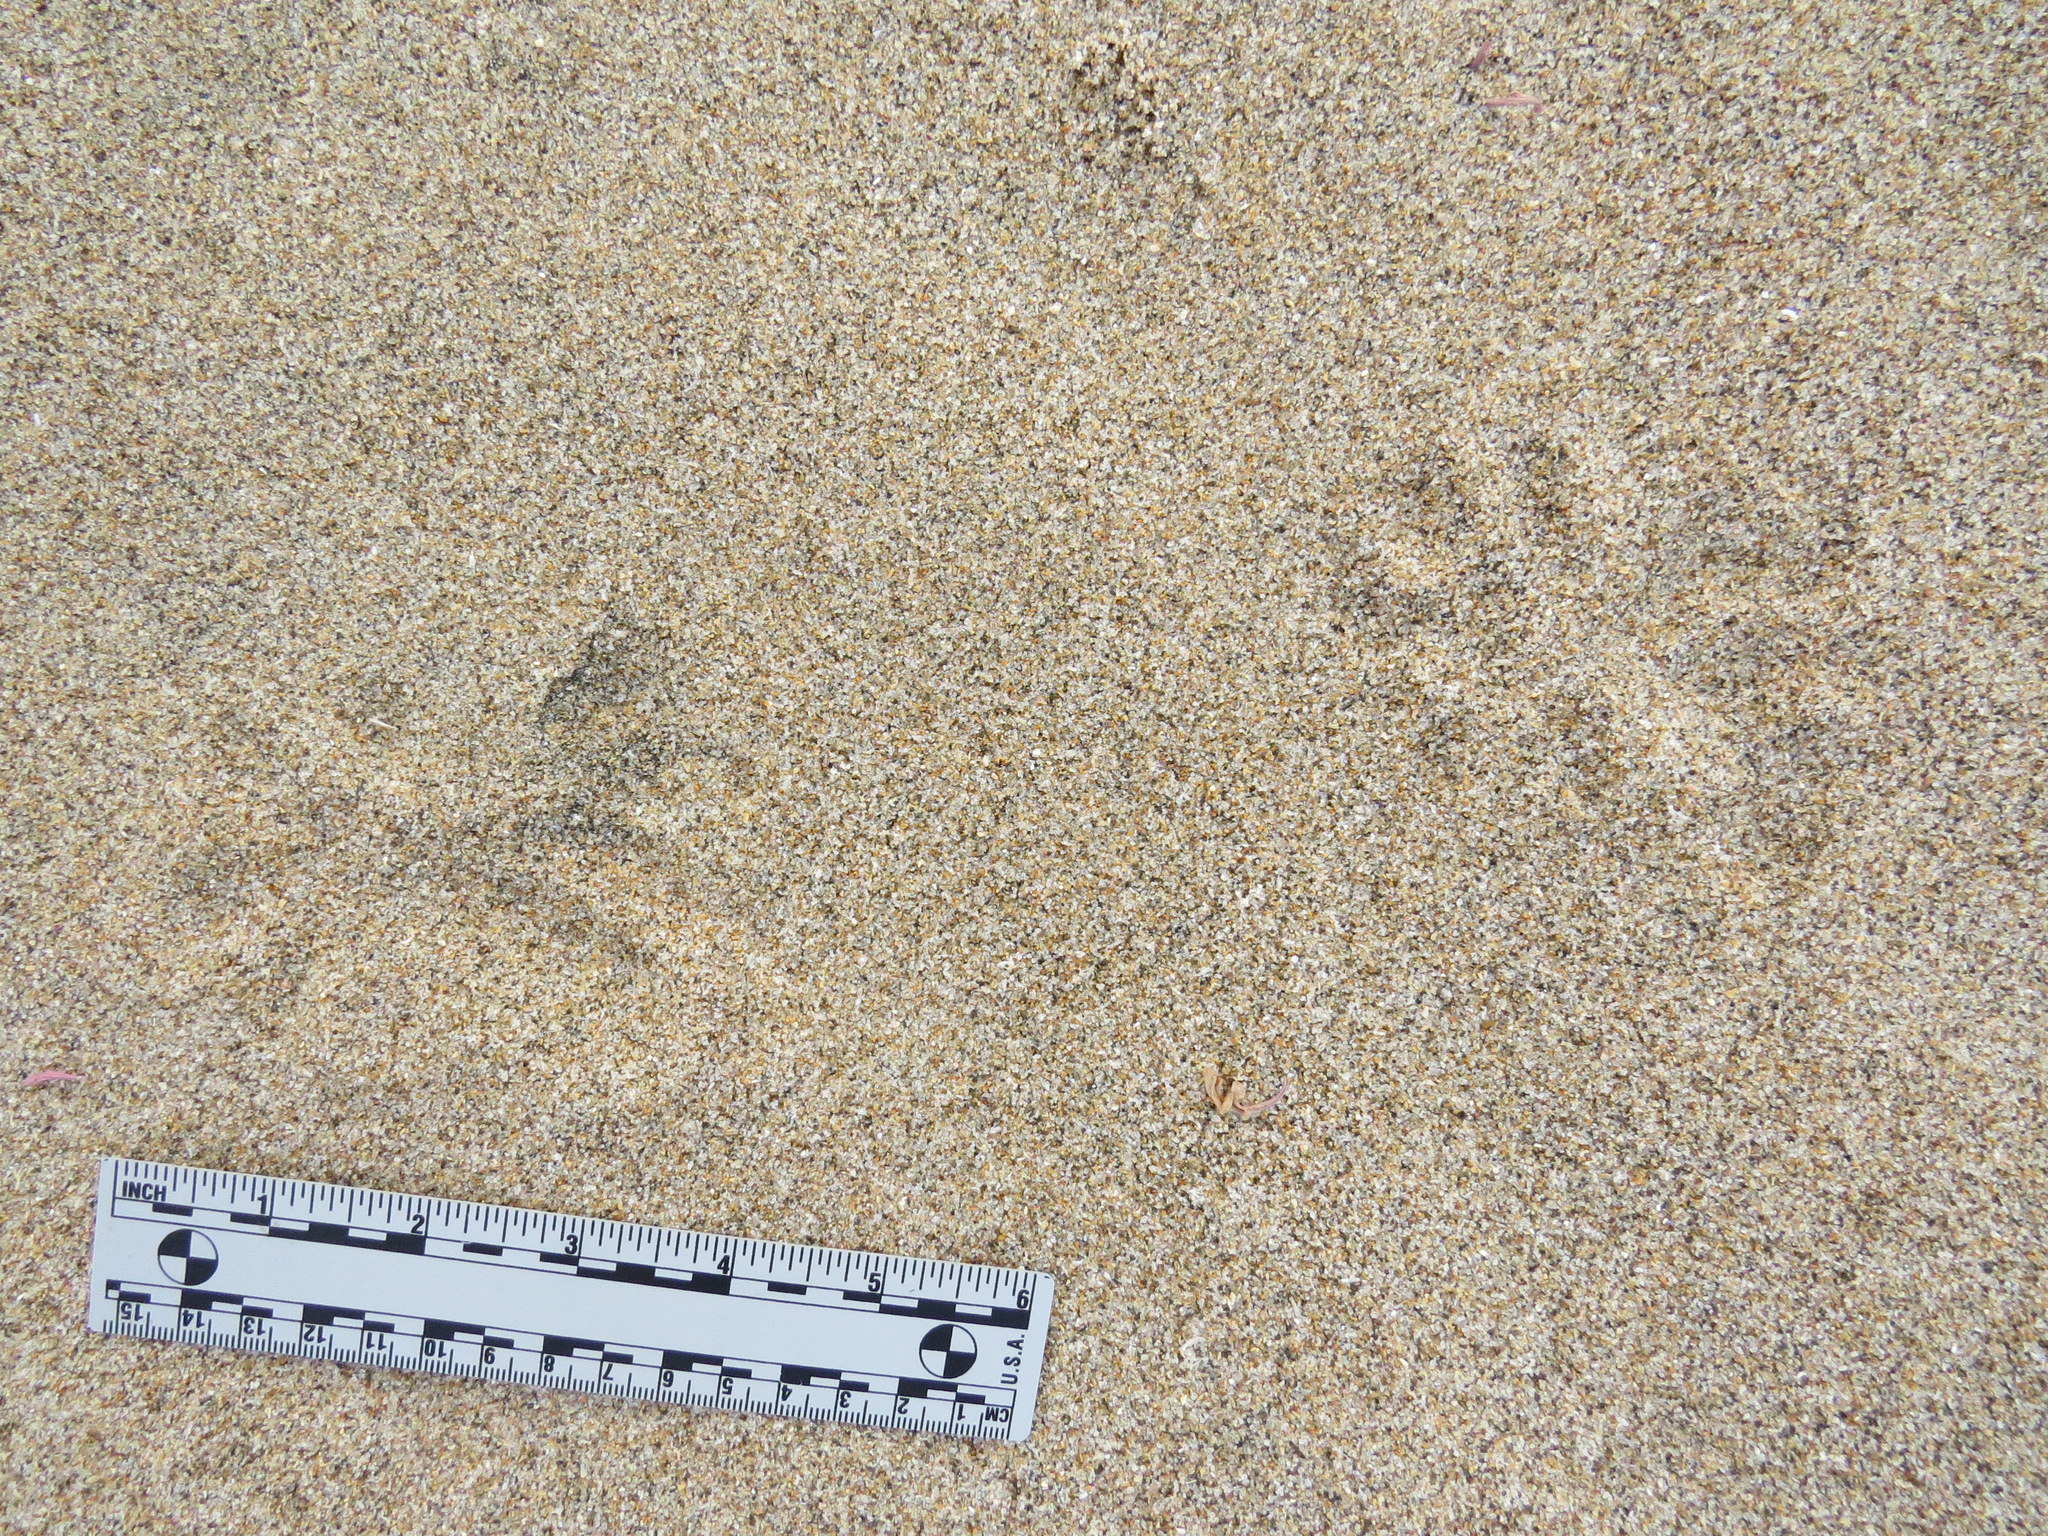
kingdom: Animalia
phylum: Chordata
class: Mammalia
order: Didelphimorphia
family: Didelphidae
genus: Didelphis
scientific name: Didelphis virginiana
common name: Virginia opossum
